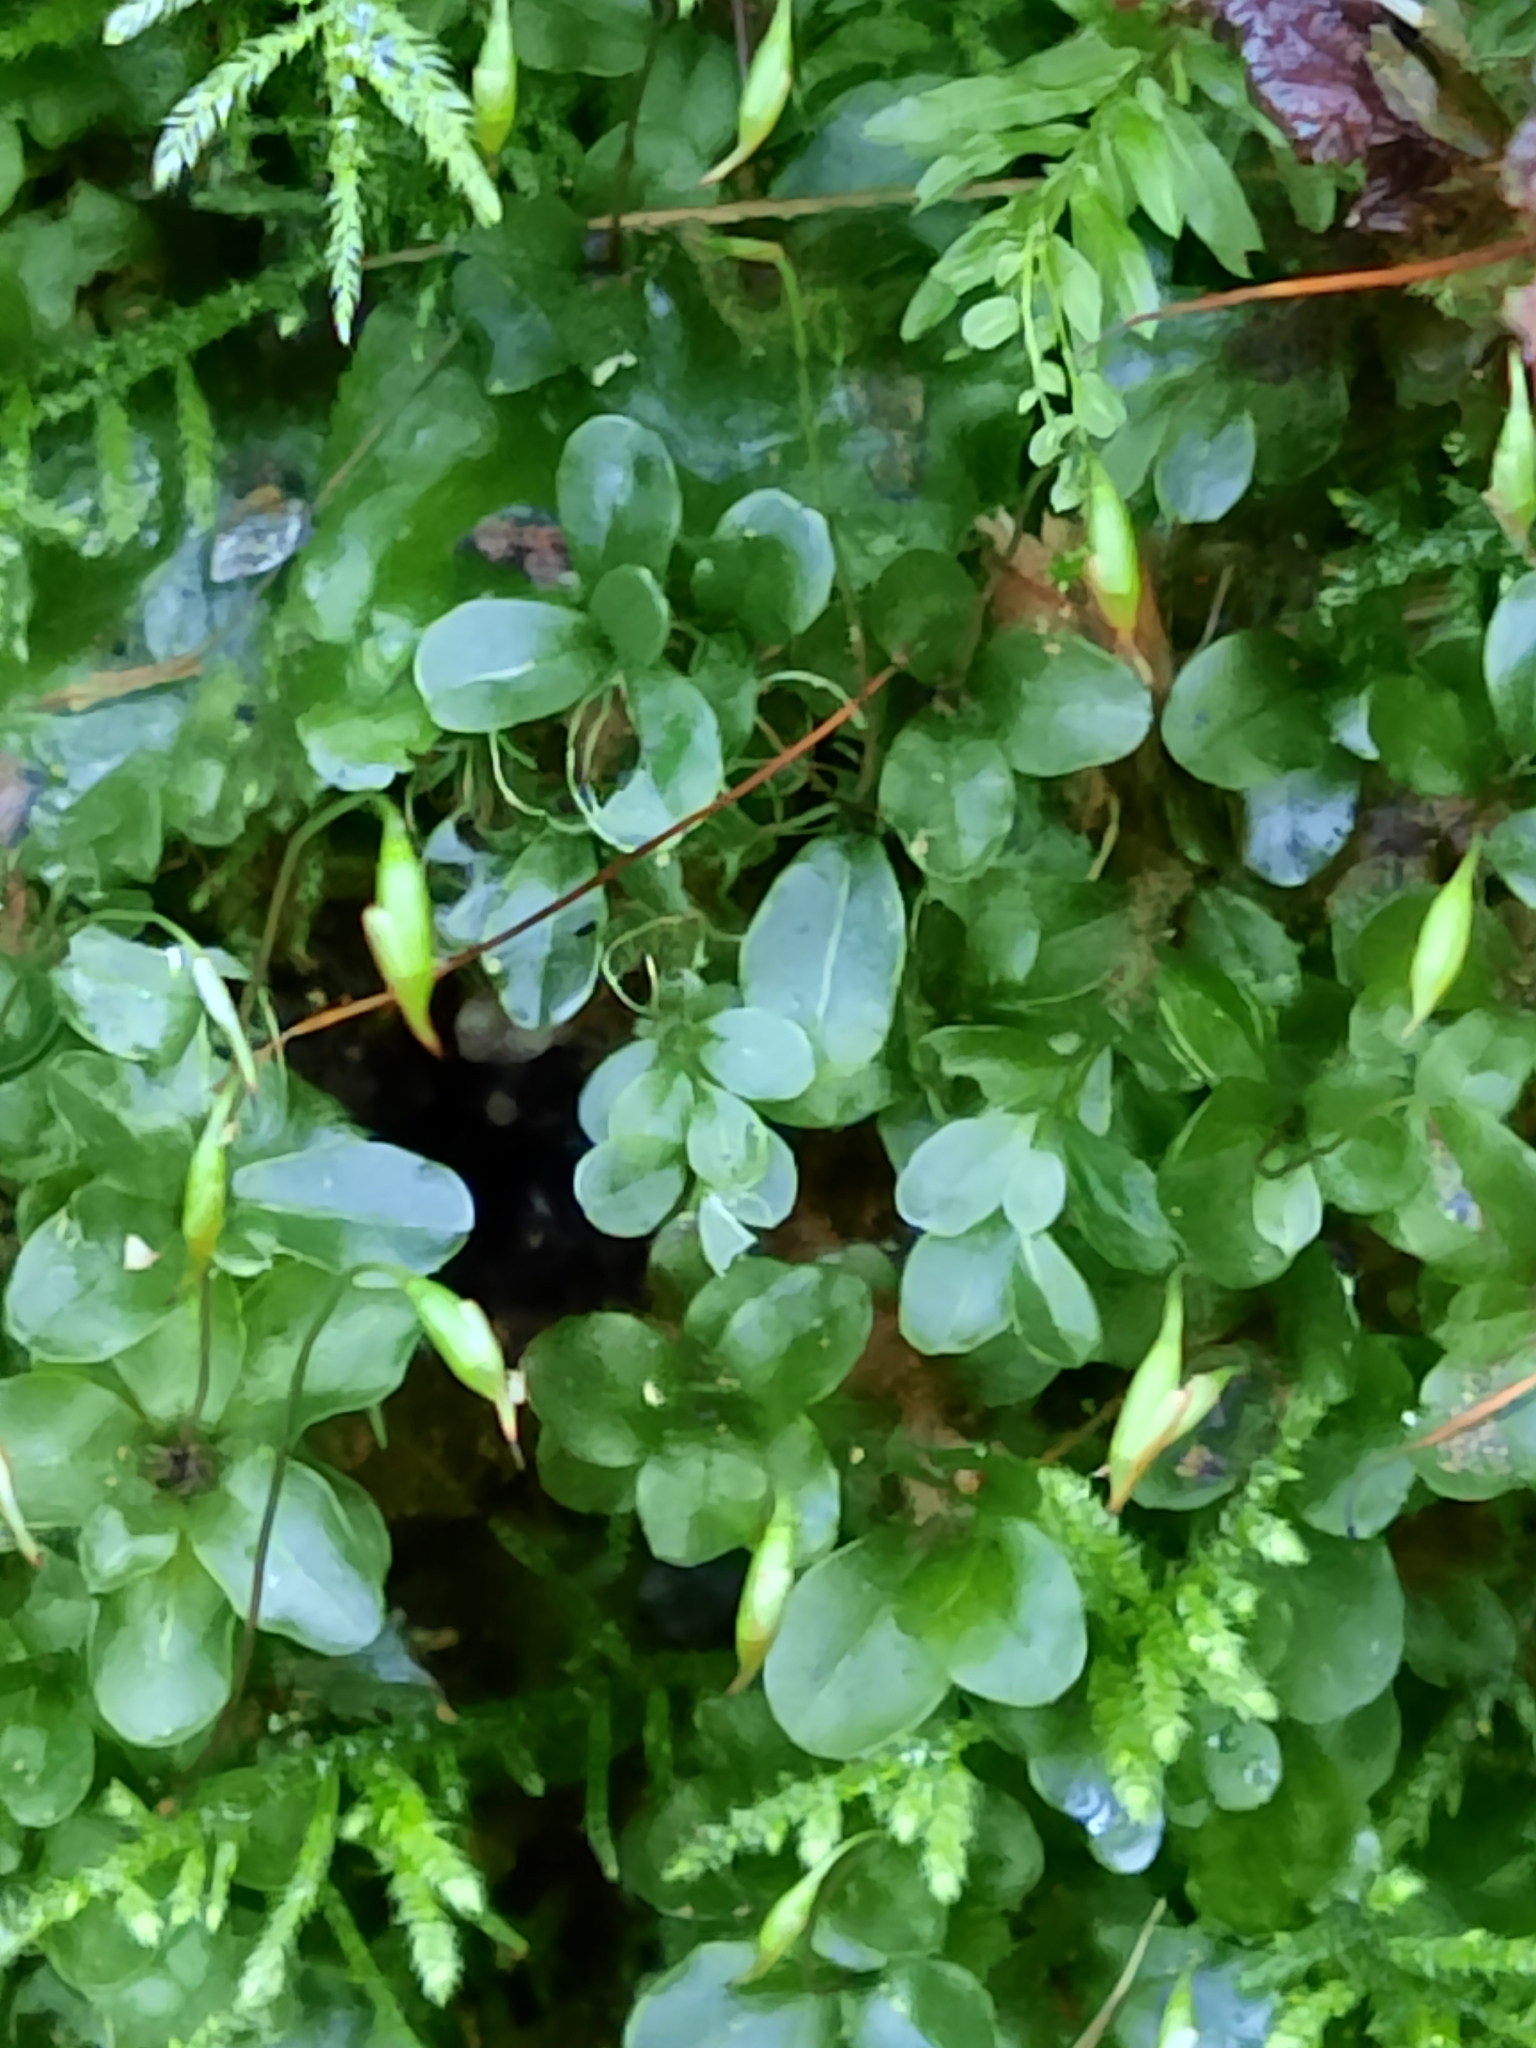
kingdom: Plantae
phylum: Bryophyta
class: Bryopsida
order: Bryales
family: Mniaceae
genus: Rhizomnium
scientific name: Rhizomnium punctatum
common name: Dotted leafy moss
